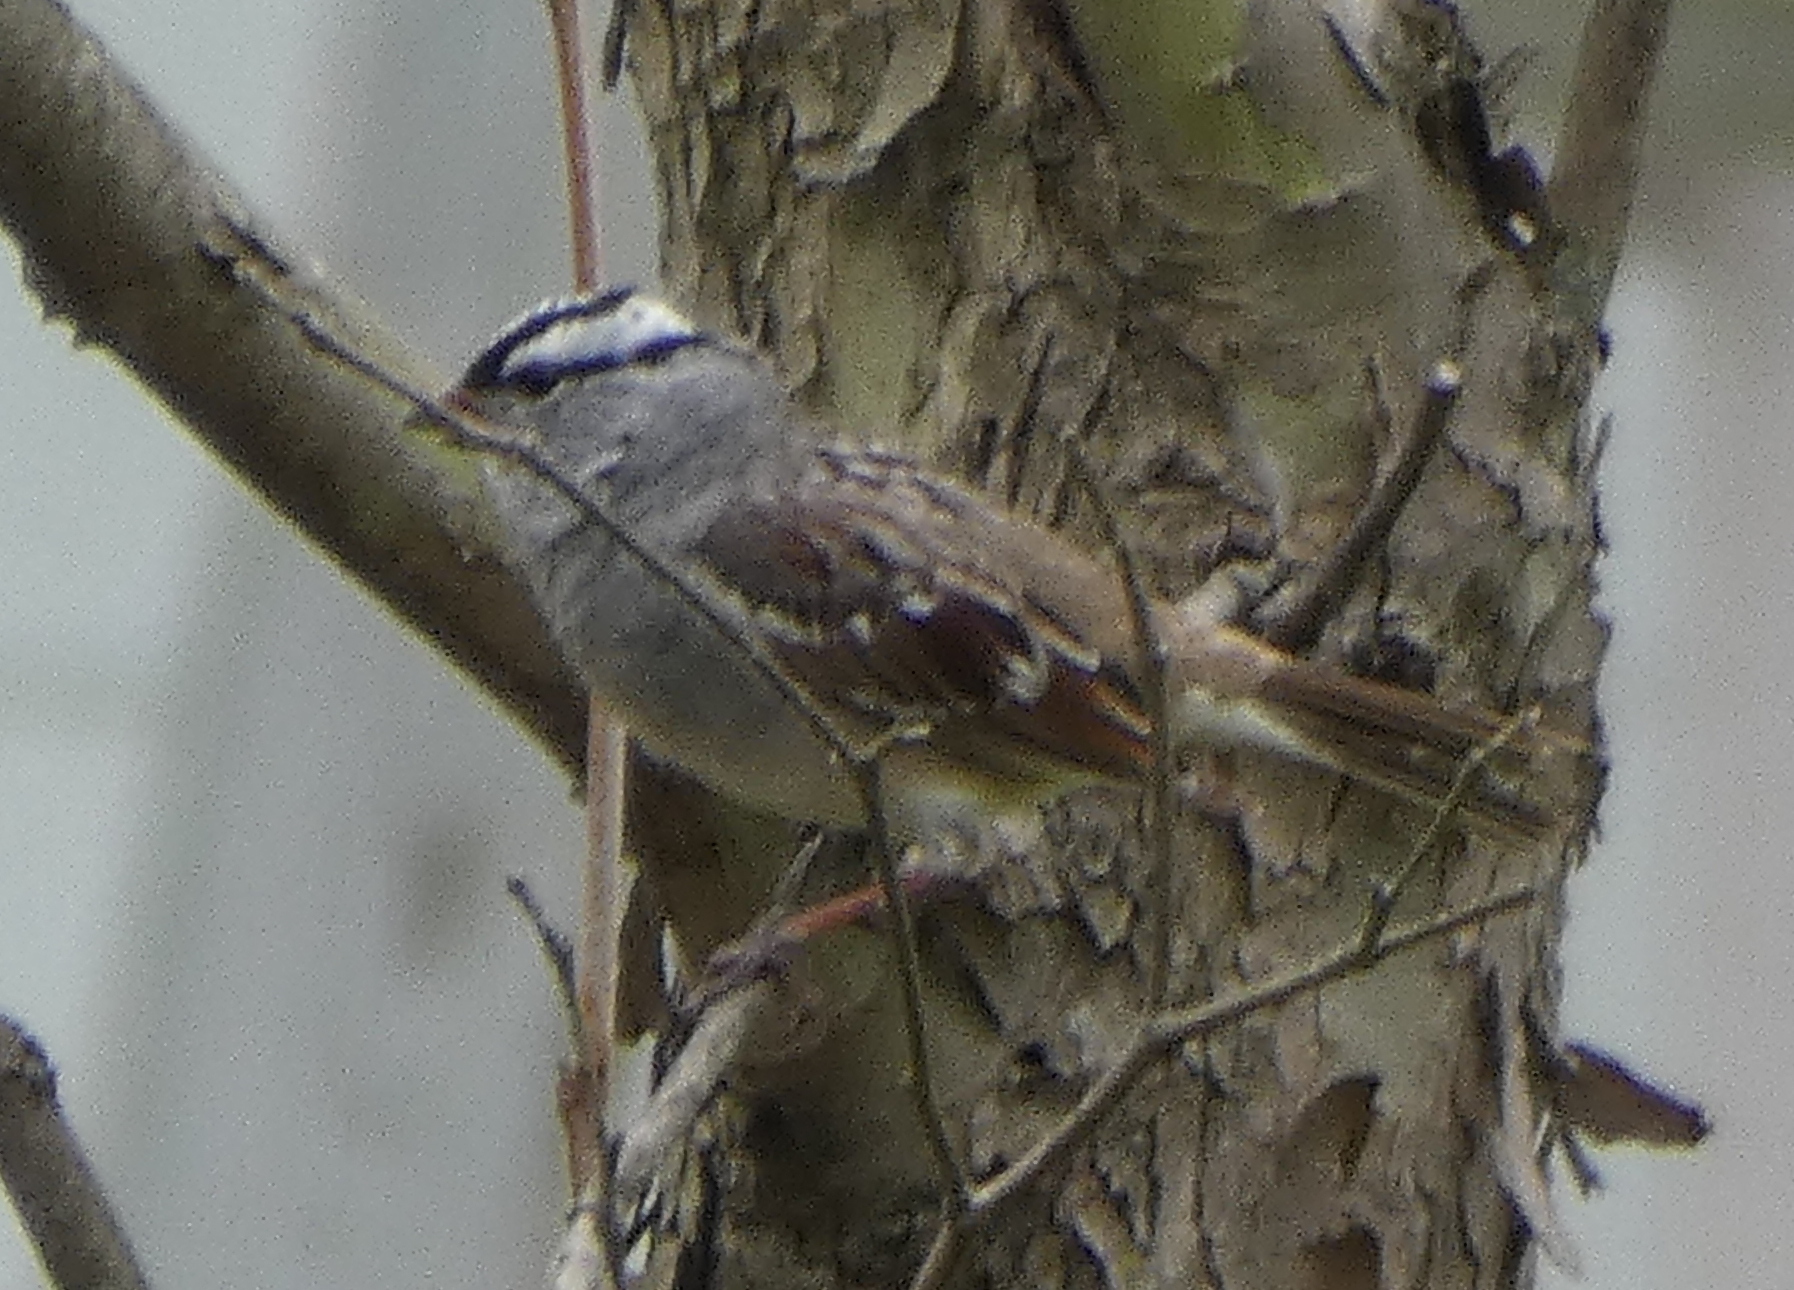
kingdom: Animalia
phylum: Chordata
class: Aves
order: Passeriformes
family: Passerellidae
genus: Zonotrichia
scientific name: Zonotrichia leucophrys
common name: White-crowned sparrow
